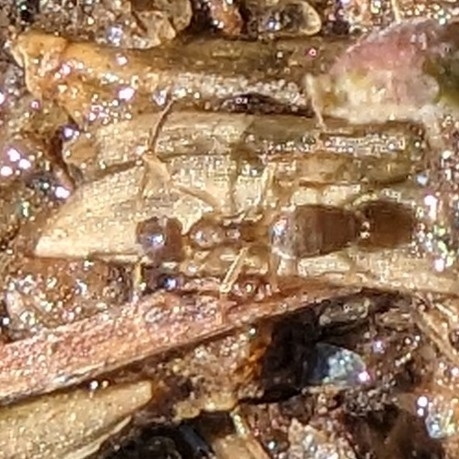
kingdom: Animalia
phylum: Arthropoda
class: Insecta
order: Hymenoptera
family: Formicidae
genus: Tapinoma
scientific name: Tapinoma sessile
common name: Odorous house ant
